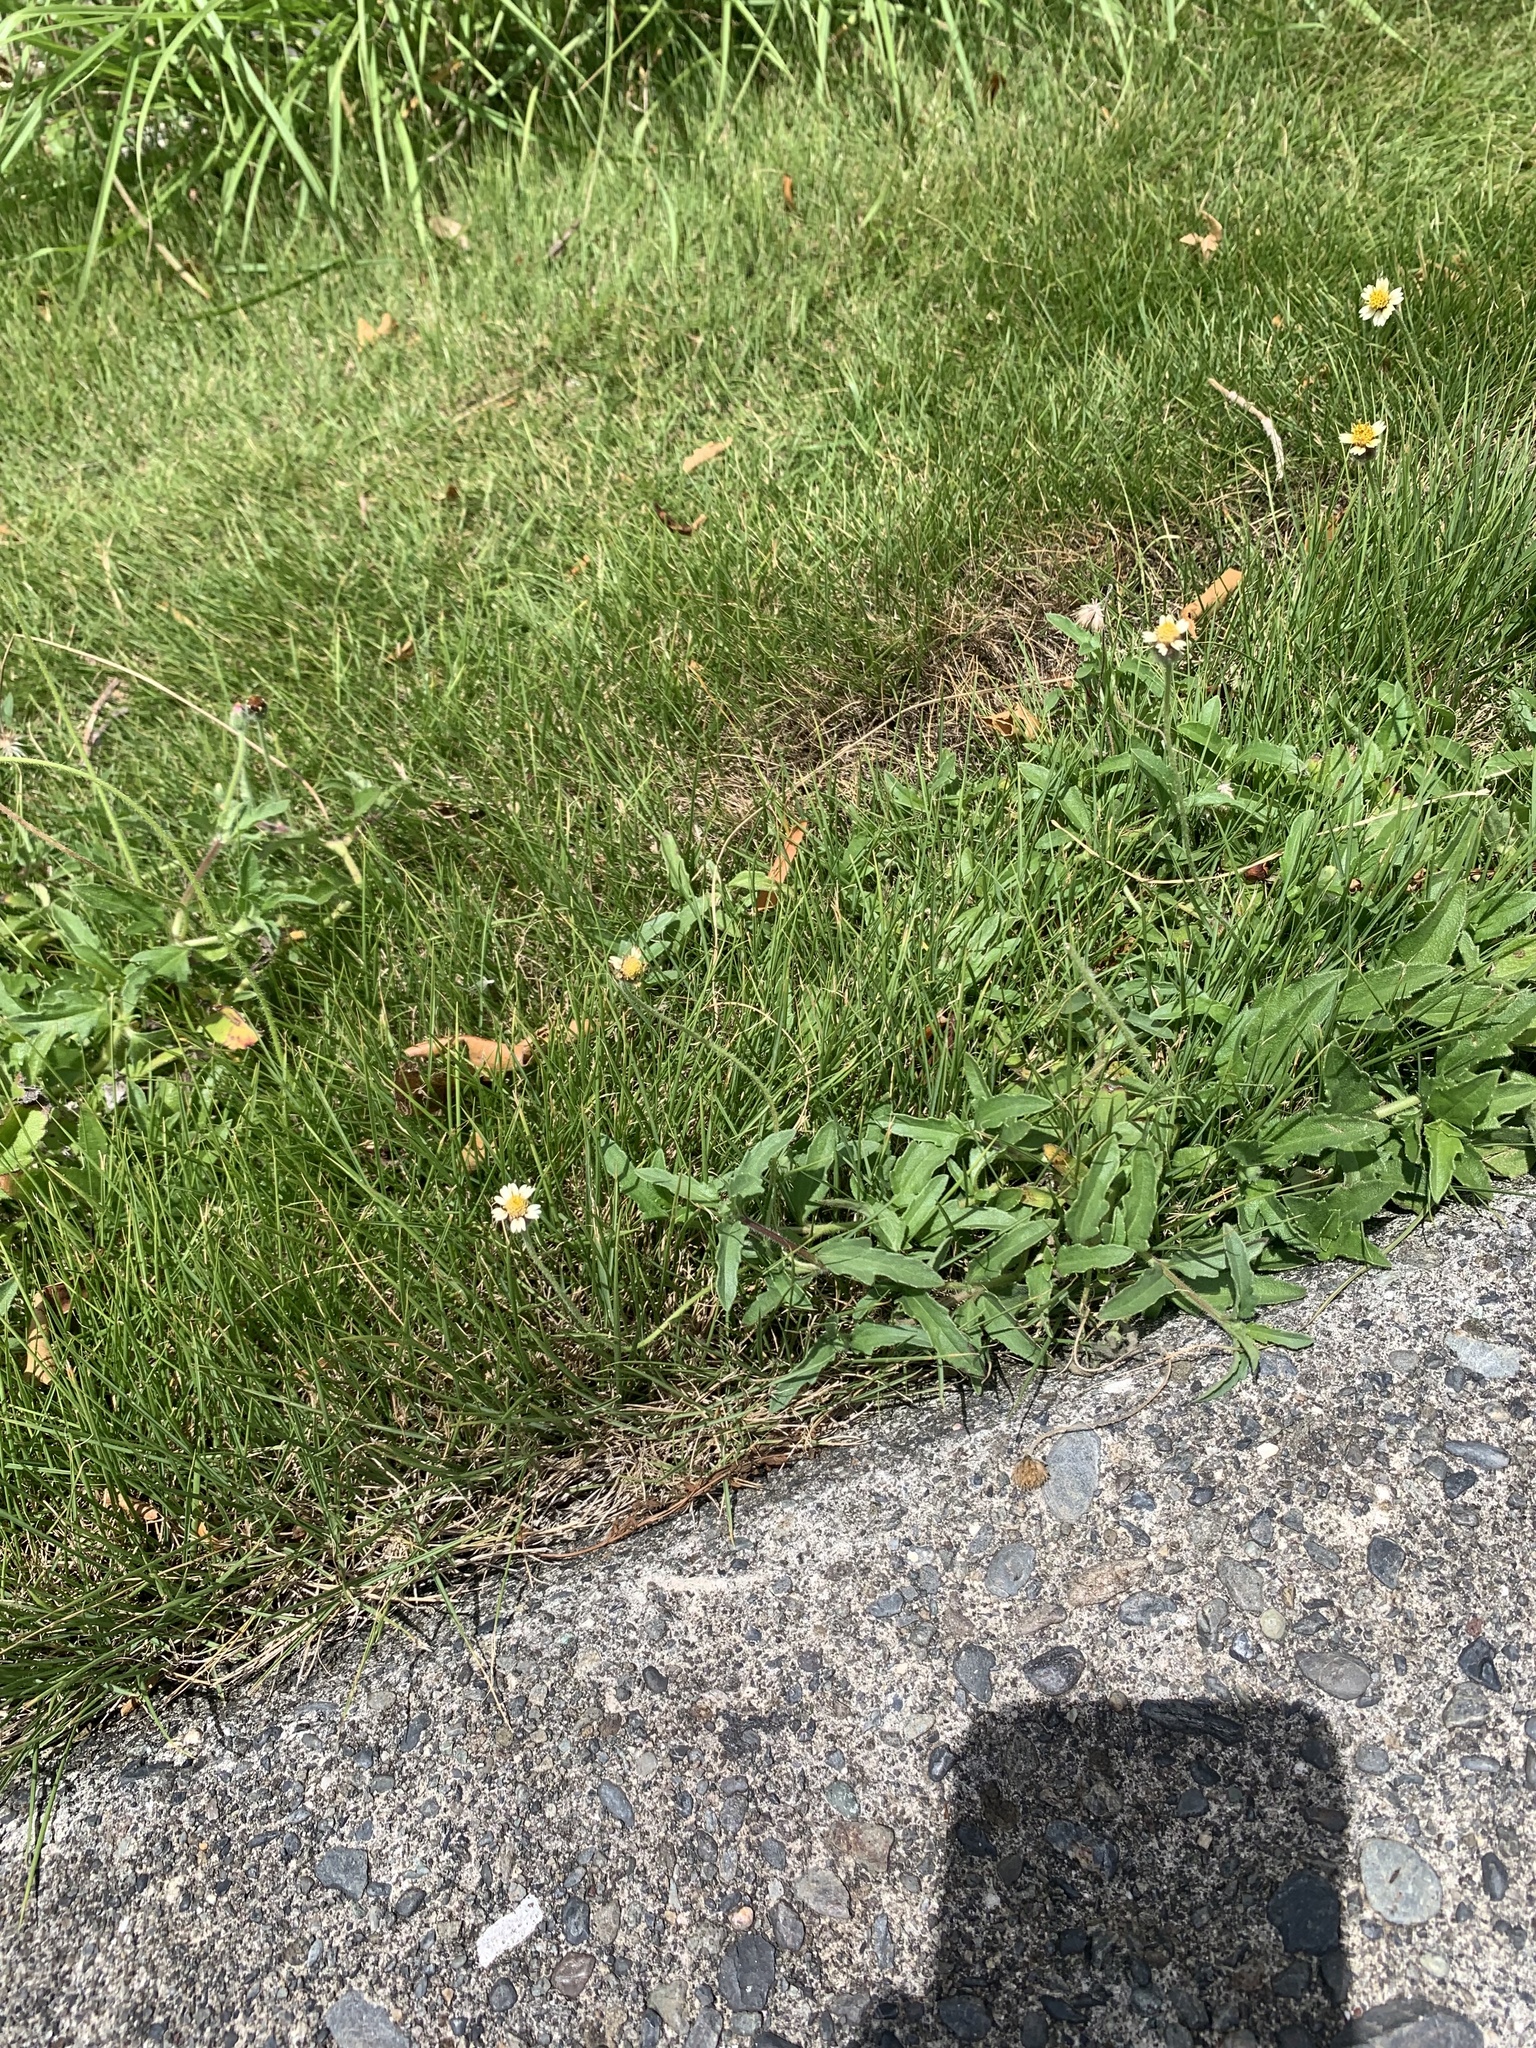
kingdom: Plantae
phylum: Tracheophyta
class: Magnoliopsida
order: Asterales
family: Asteraceae
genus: Tridax
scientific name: Tridax procumbens
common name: Coatbuttons
